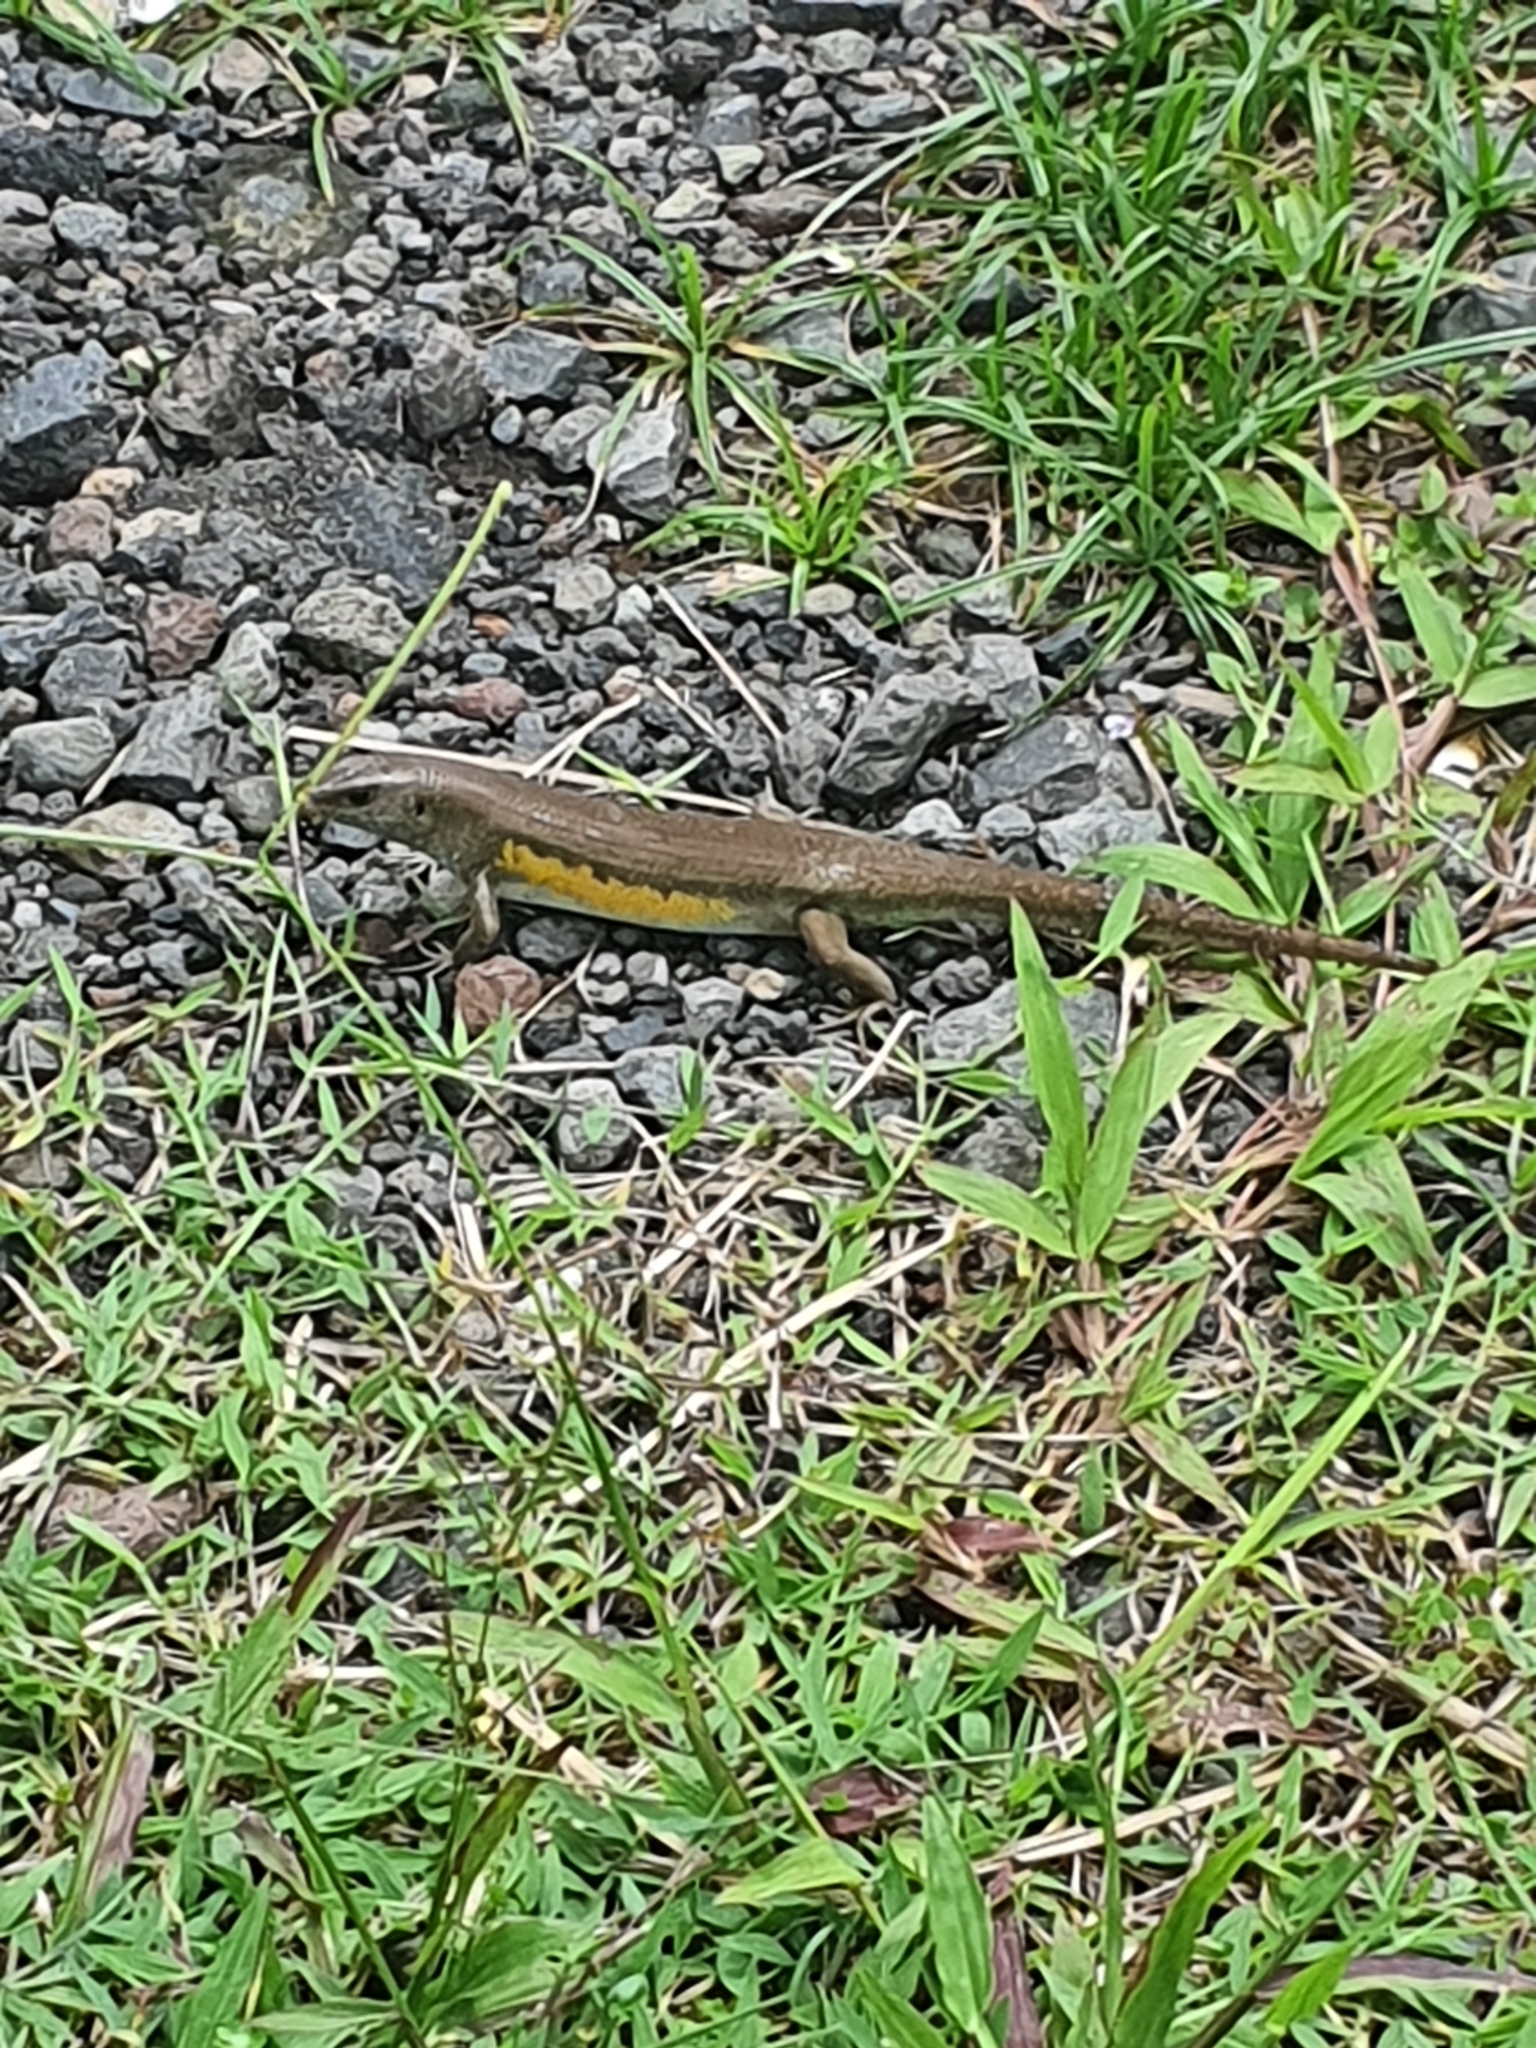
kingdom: Animalia
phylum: Chordata
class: Squamata
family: Scincidae
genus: Eutropis
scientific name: Eutropis multifasciata
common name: Common mabuya
